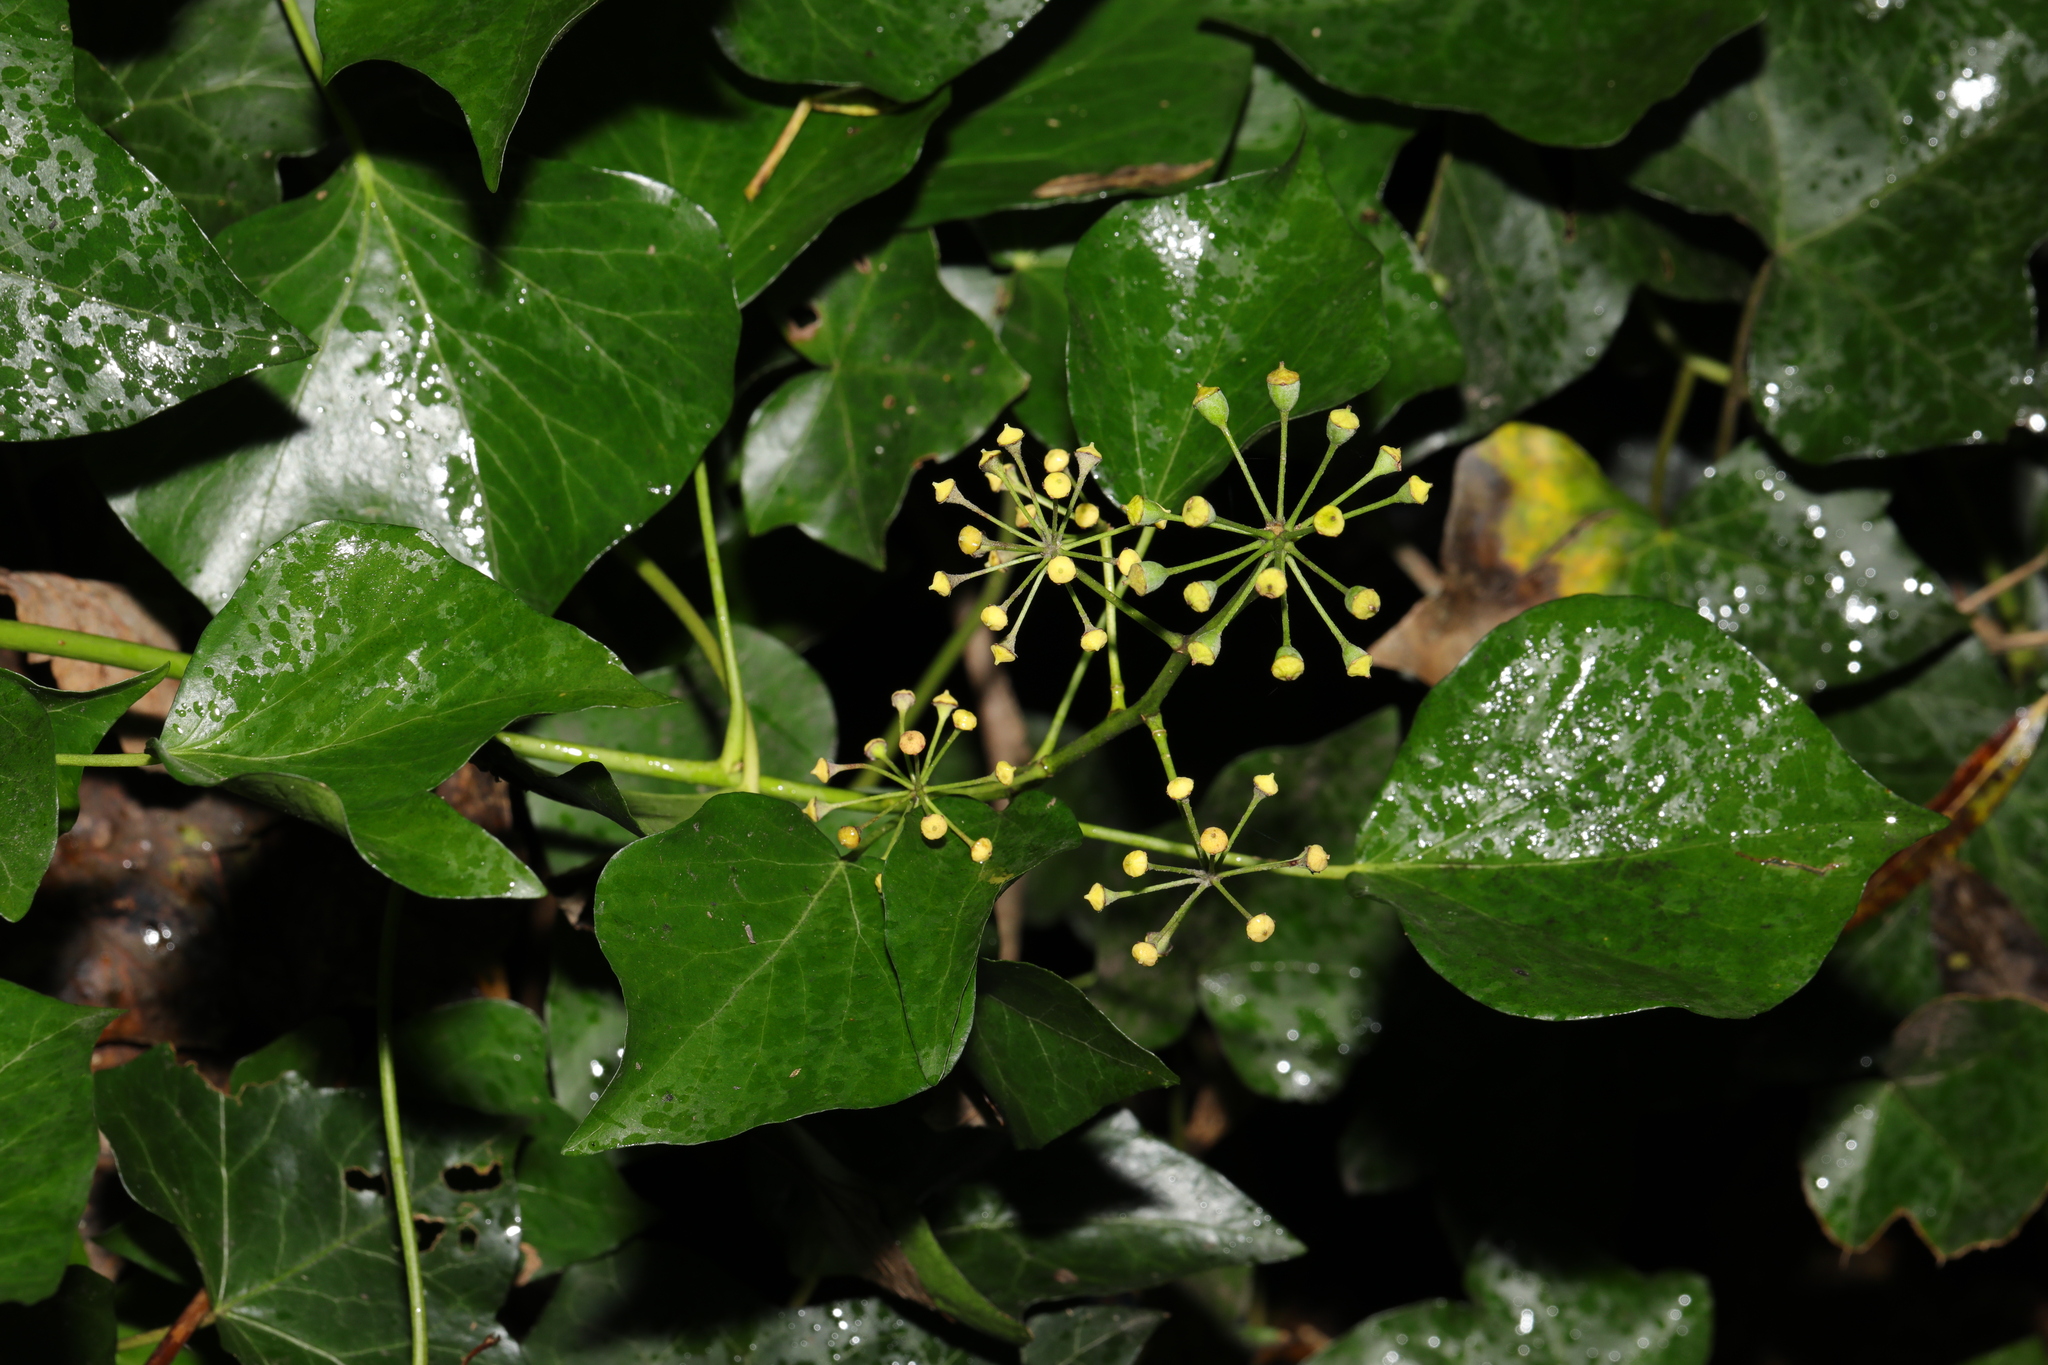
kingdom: Plantae
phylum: Tracheophyta
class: Magnoliopsida
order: Apiales
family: Araliaceae
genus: Hedera
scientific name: Hedera helix
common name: Ivy
